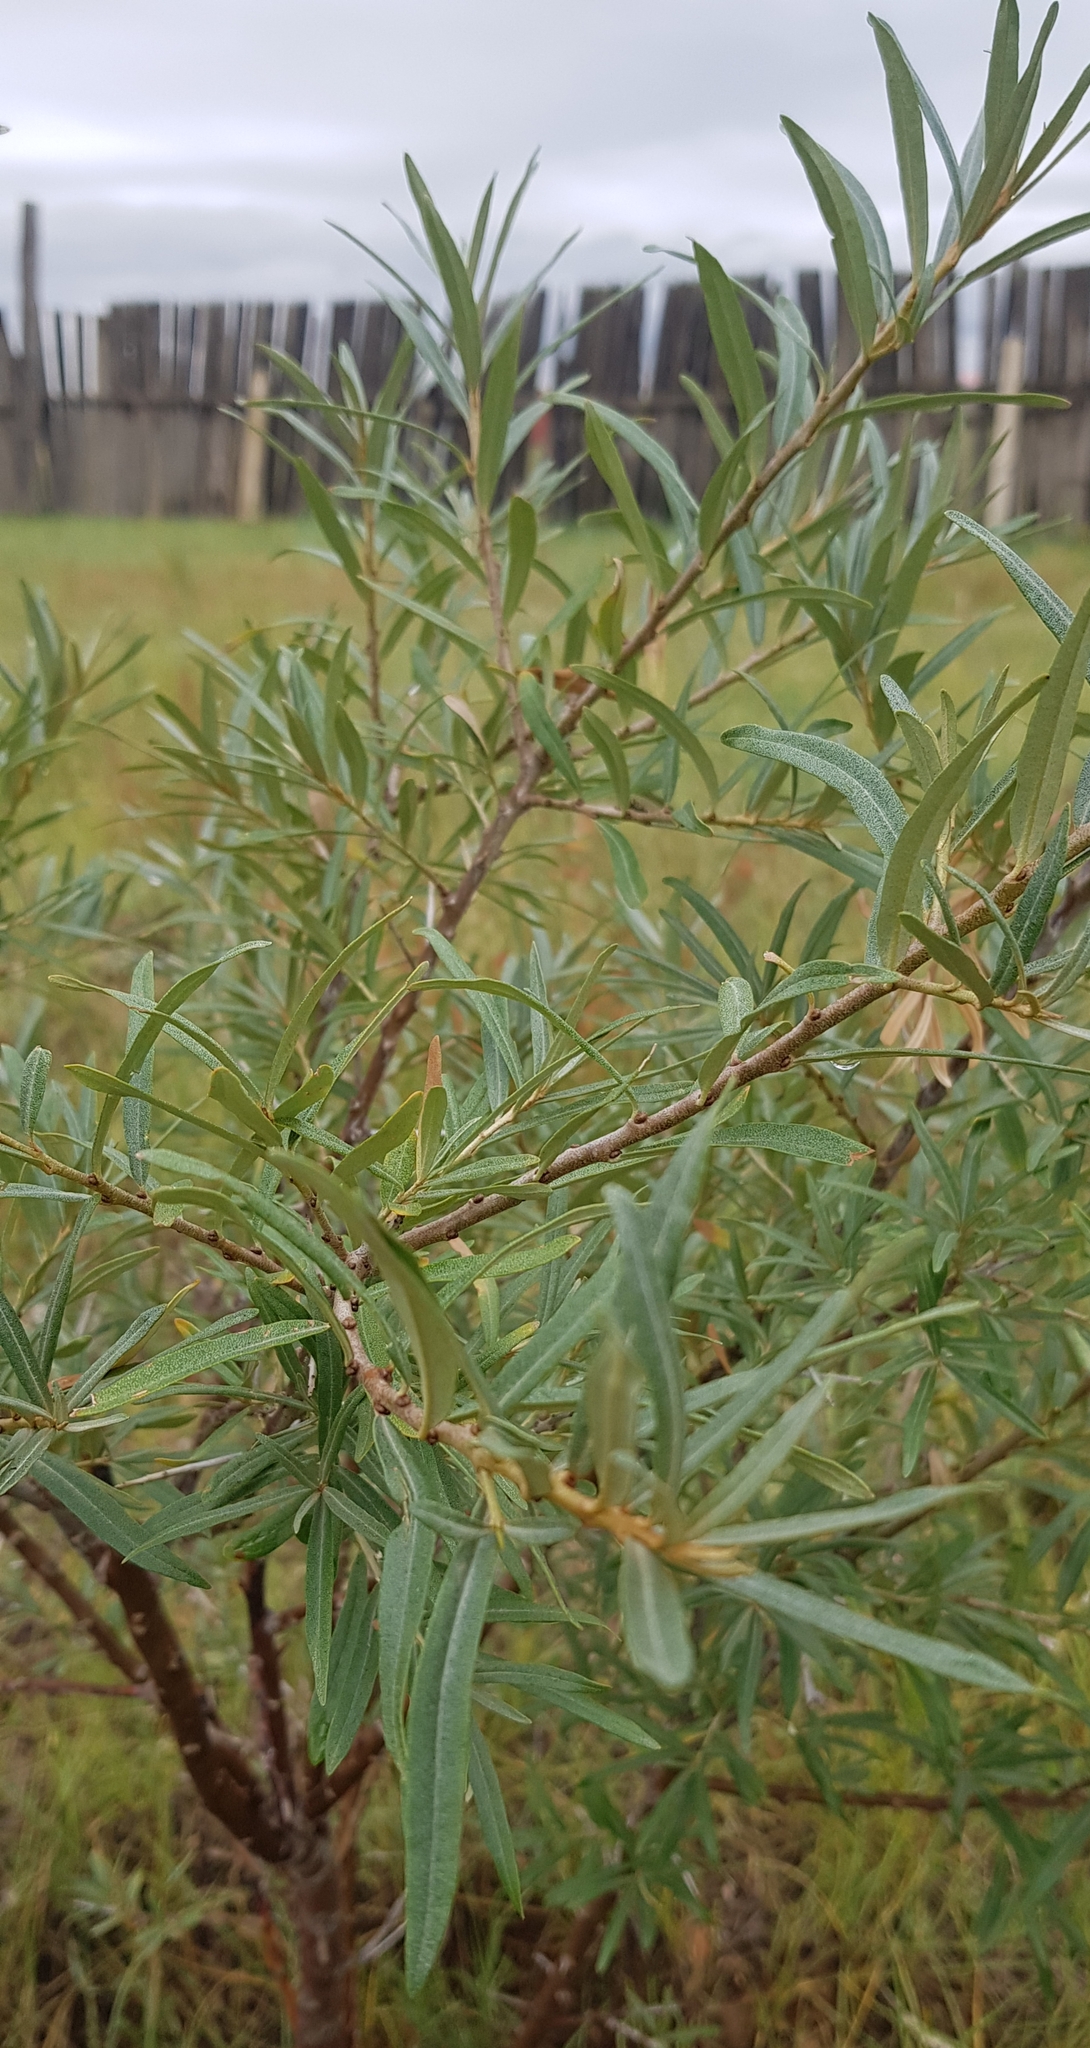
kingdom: Plantae
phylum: Tracheophyta
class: Magnoliopsida
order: Rosales
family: Elaeagnaceae
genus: Hippophae
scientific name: Hippophae rhamnoides
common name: Sea-buckthorn
